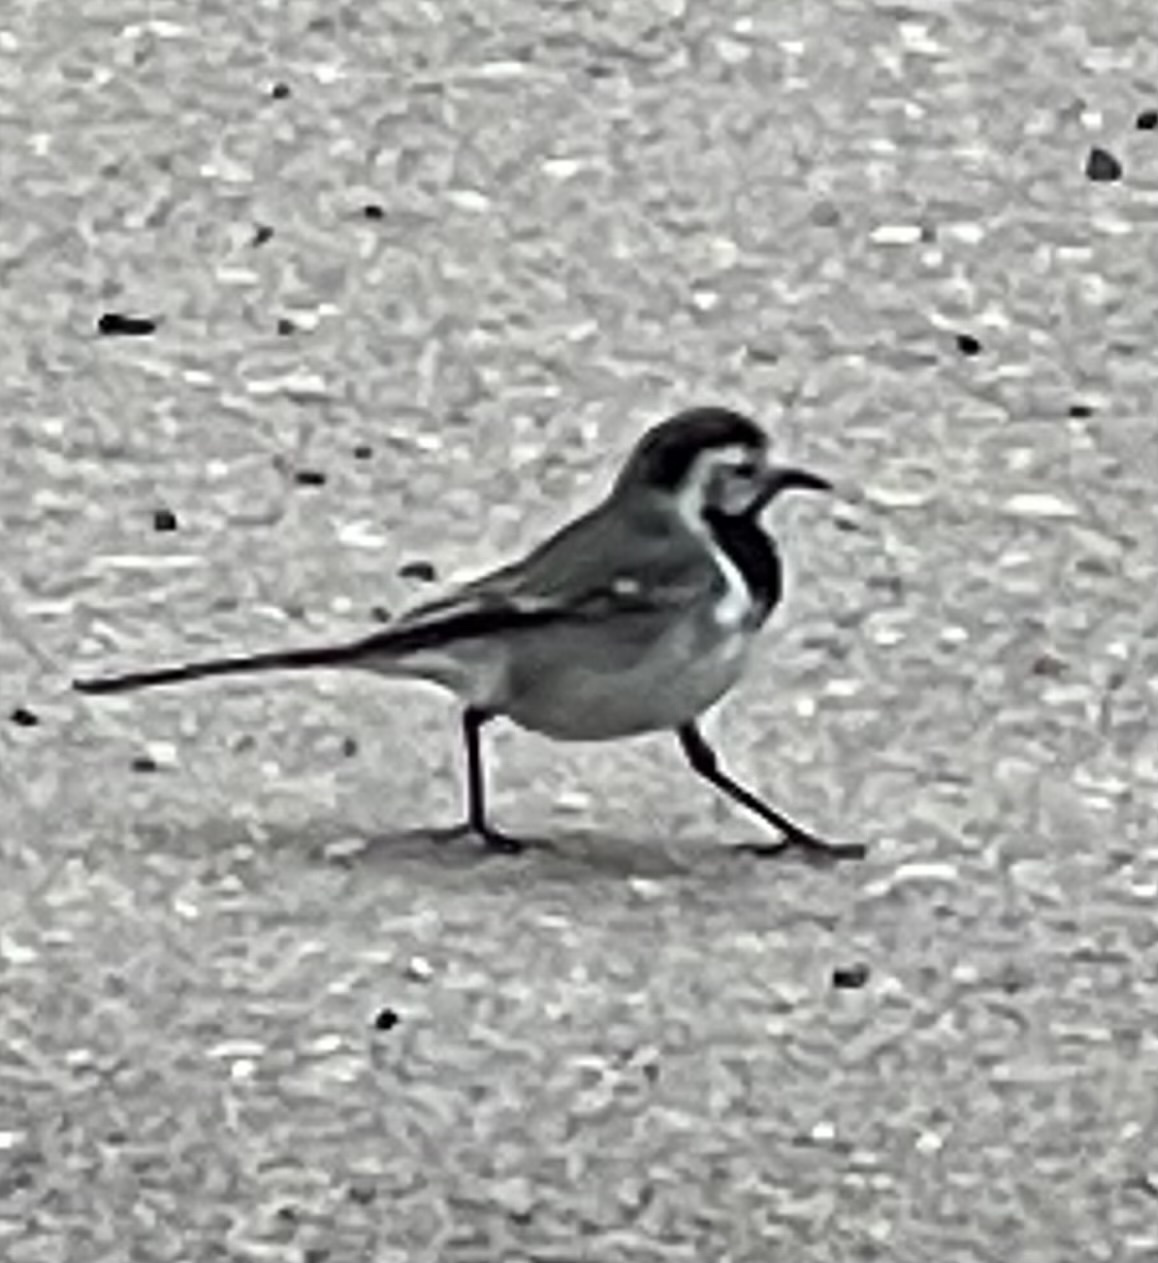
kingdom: Animalia
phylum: Chordata
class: Aves
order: Passeriformes
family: Motacillidae
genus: Motacilla
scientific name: Motacilla alba
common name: White wagtail
